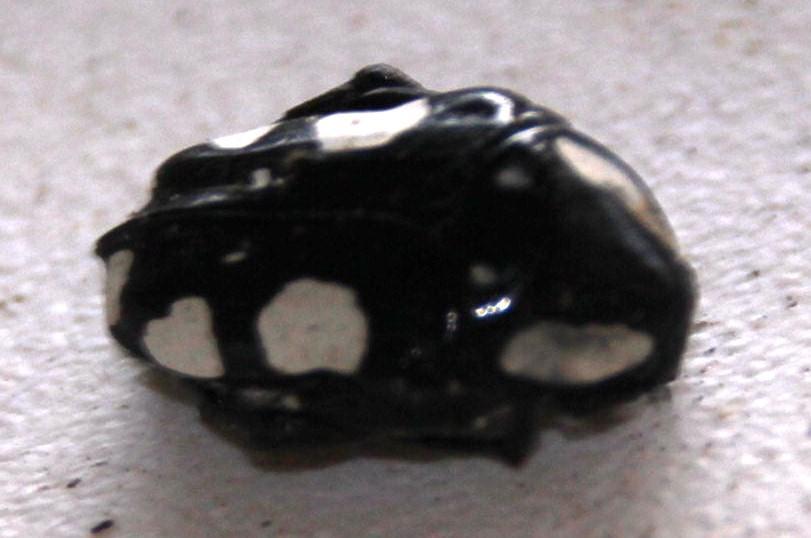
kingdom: Animalia
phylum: Arthropoda
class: Insecta
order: Coleoptera
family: Scarabaeidae
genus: Mausoleopsis
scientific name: Mausoleopsis amabilis
